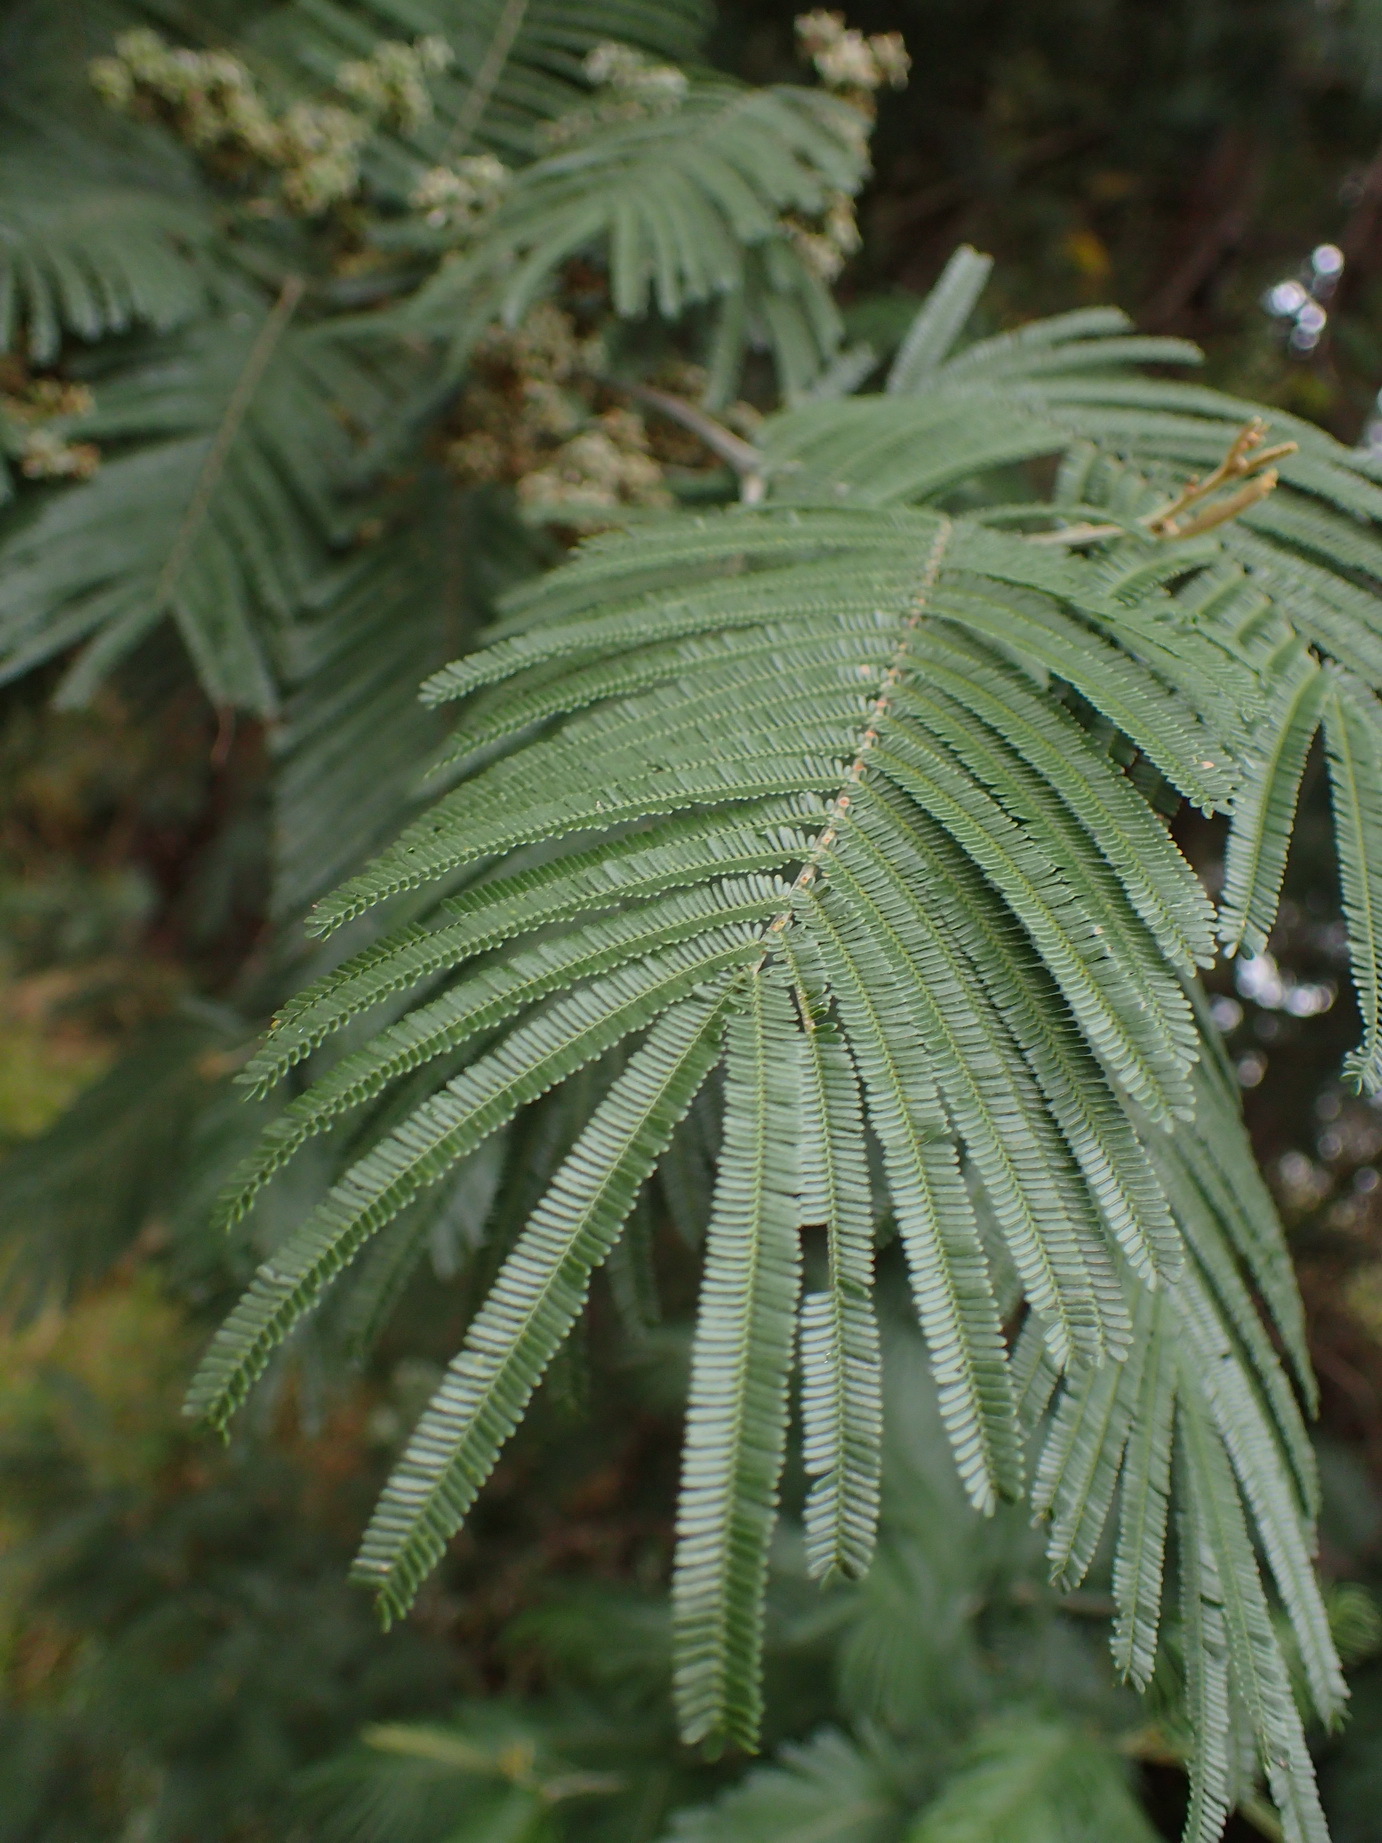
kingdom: Plantae
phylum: Tracheophyta
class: Magnoliopsida
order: Fabales
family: Fabaceae
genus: Acacia
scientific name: Acacia mearnsii
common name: Black wattle
